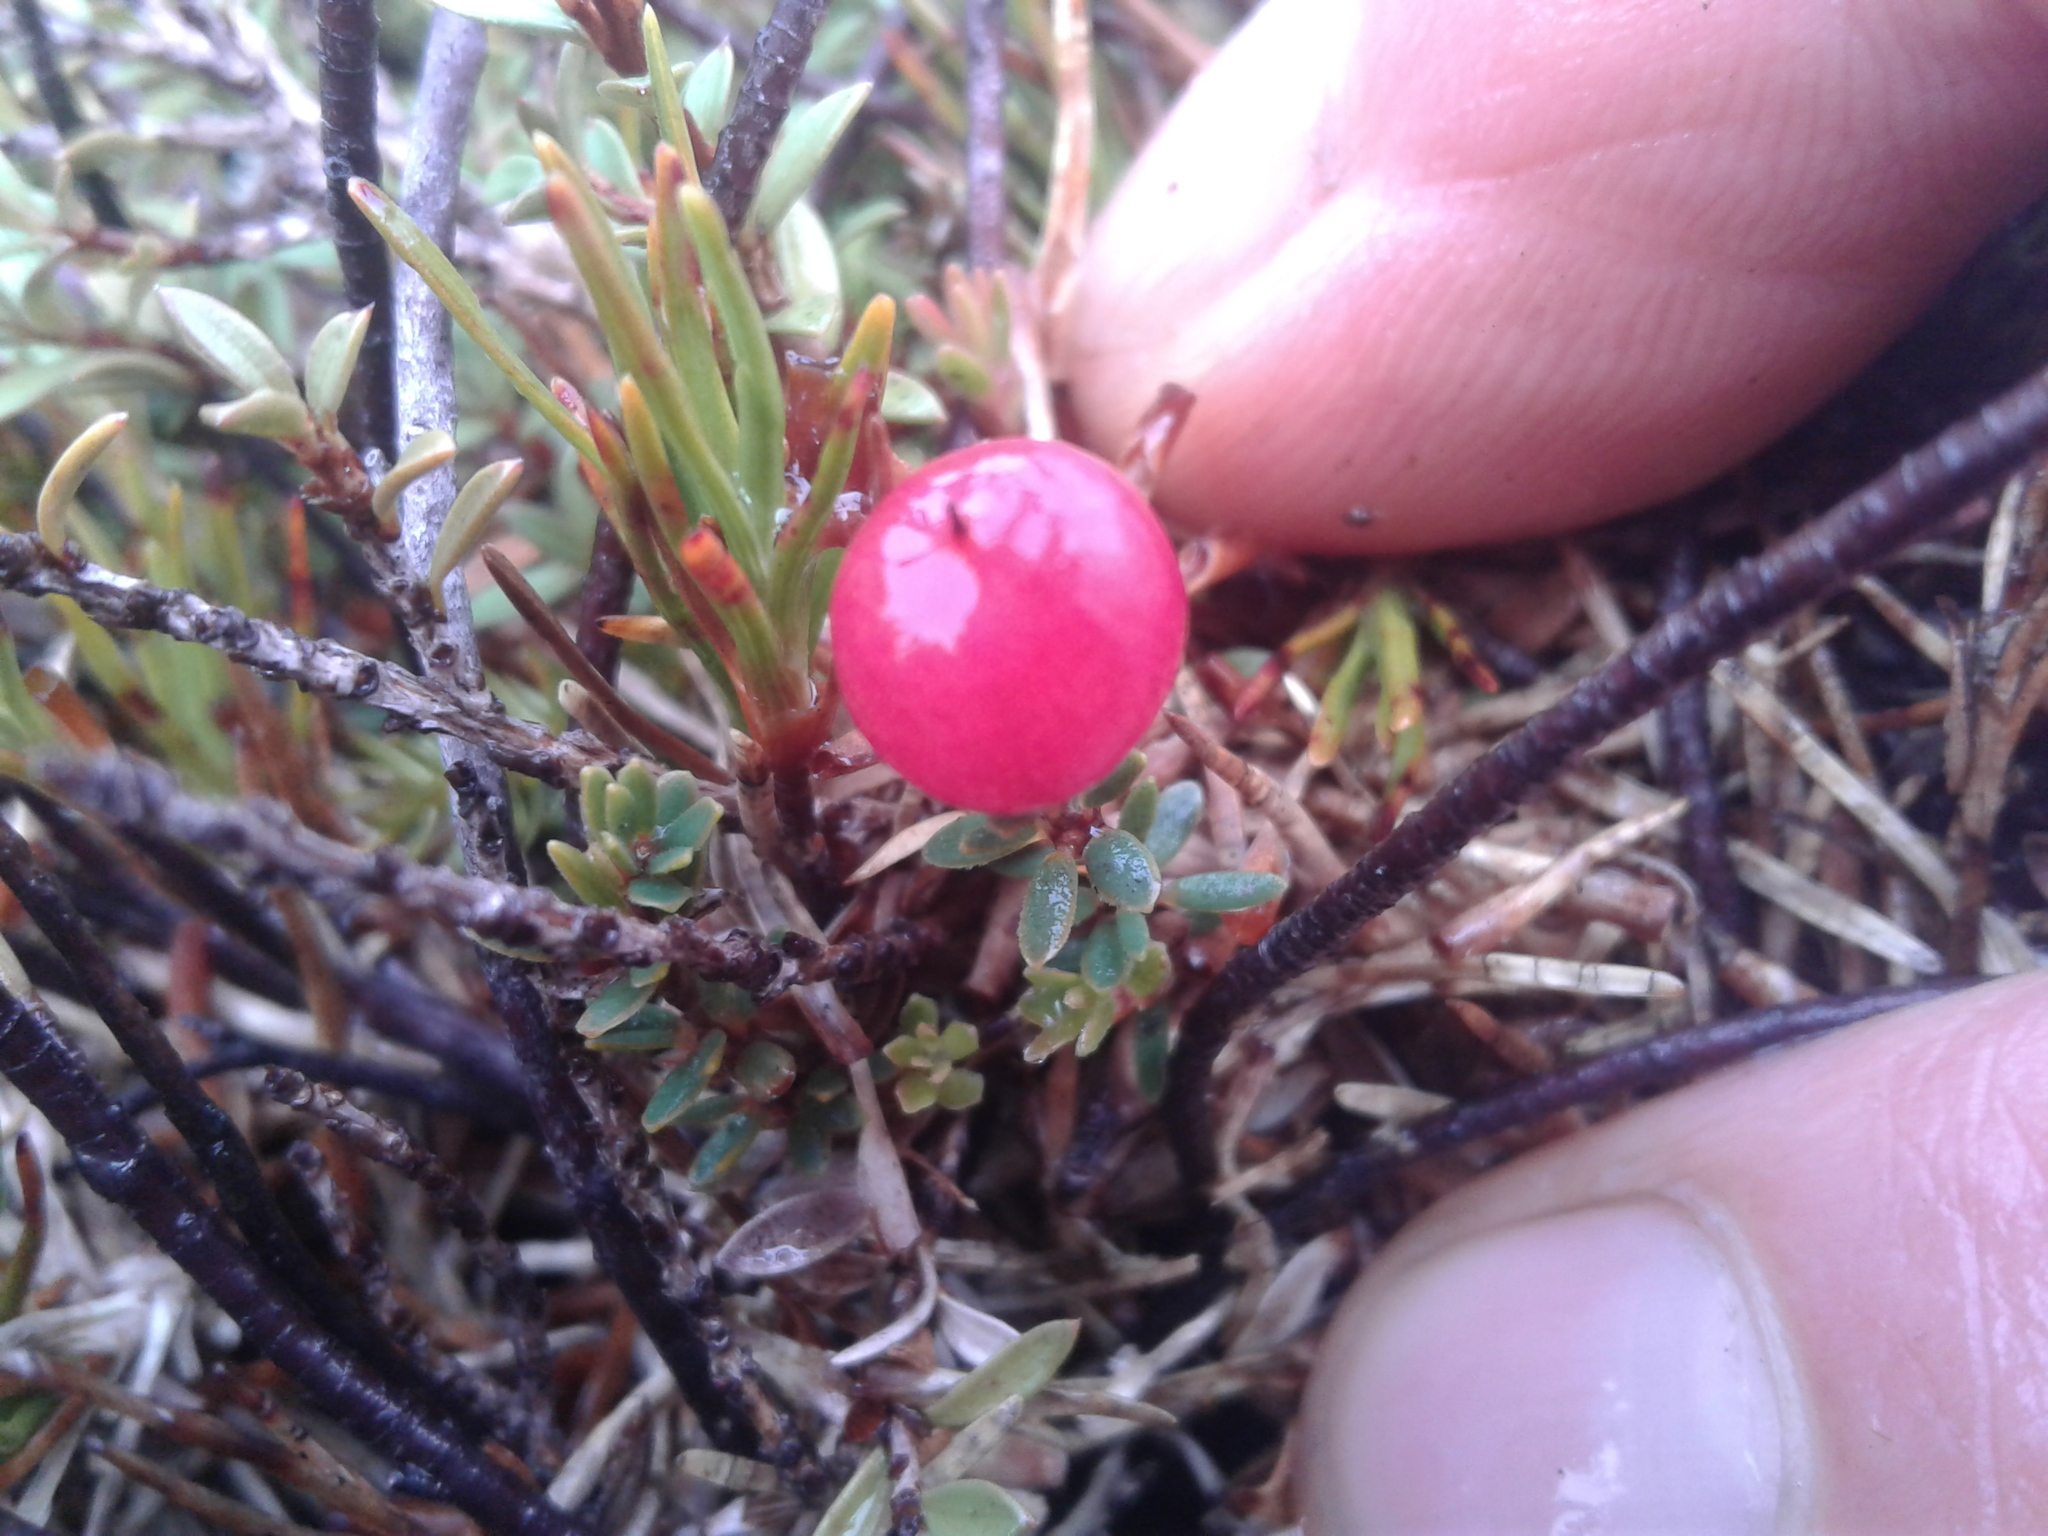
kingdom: Plantae
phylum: Tracheophyta
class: Magnoliopsida
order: Ericales
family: Ericaceae
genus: Pentachondra
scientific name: Pentachondra pumila
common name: Carpet-heath
